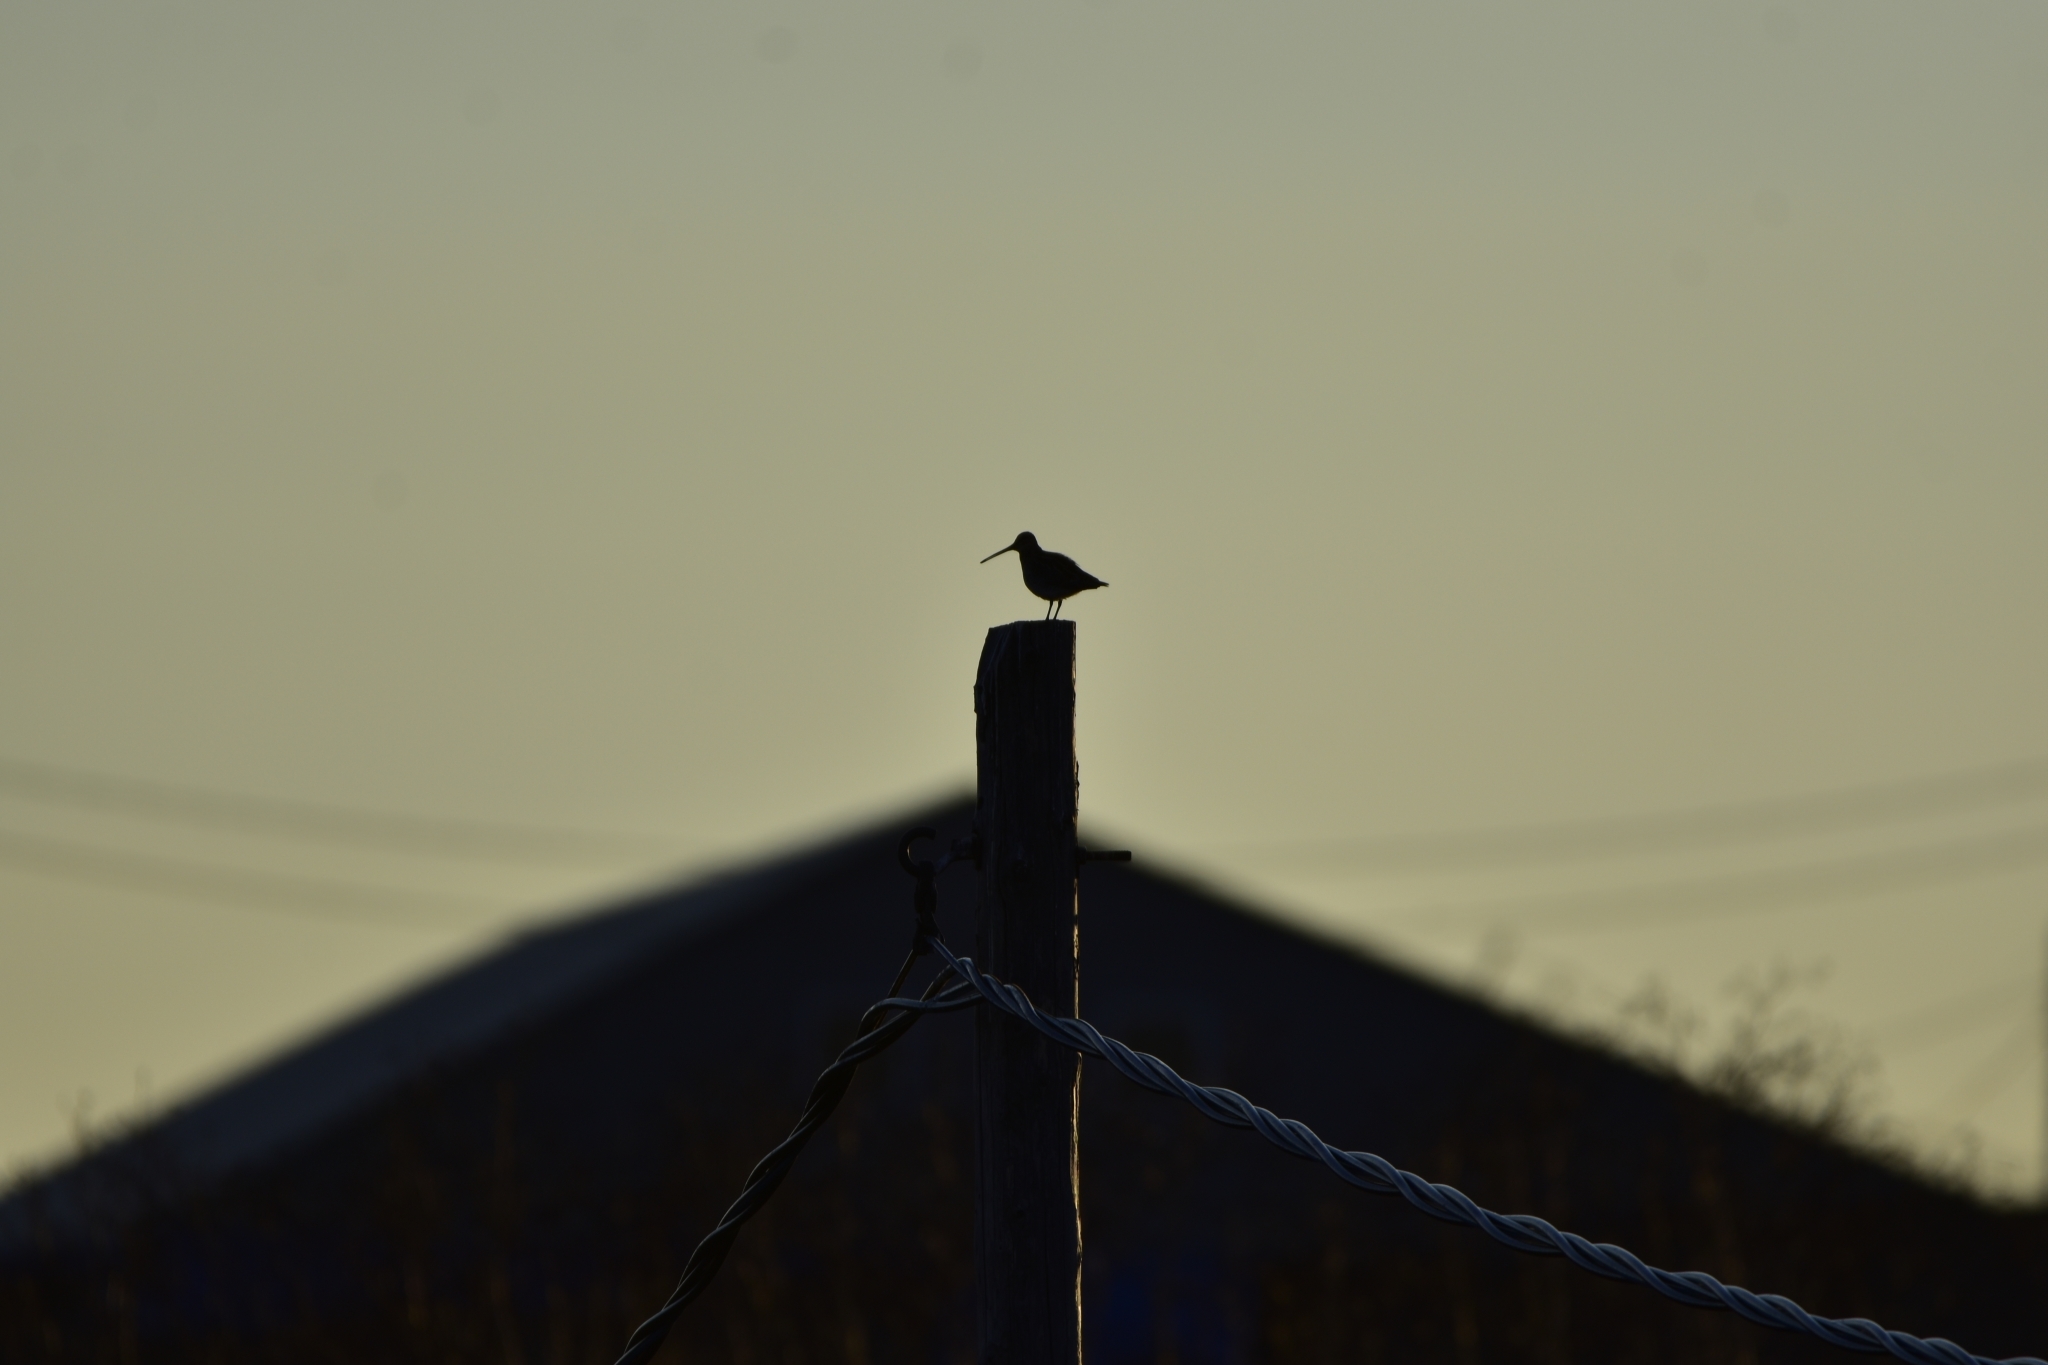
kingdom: Animalia
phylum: Chordata
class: Aves
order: Charadriiformes
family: Scolopacidae
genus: Gallinago
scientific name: Gallinago gallinago
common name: Common snipe
